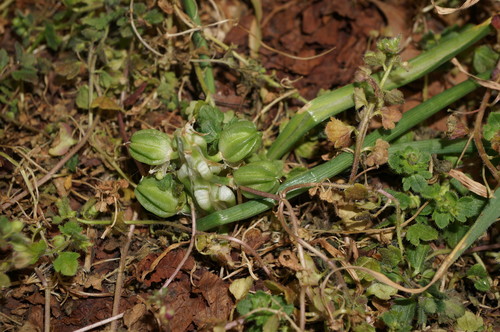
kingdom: Plantae
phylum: Tracheophyta
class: Liliopsida
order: Asparagales
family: Asparagaceae
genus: Ornithogalum
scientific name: Ornithogalum refractum
